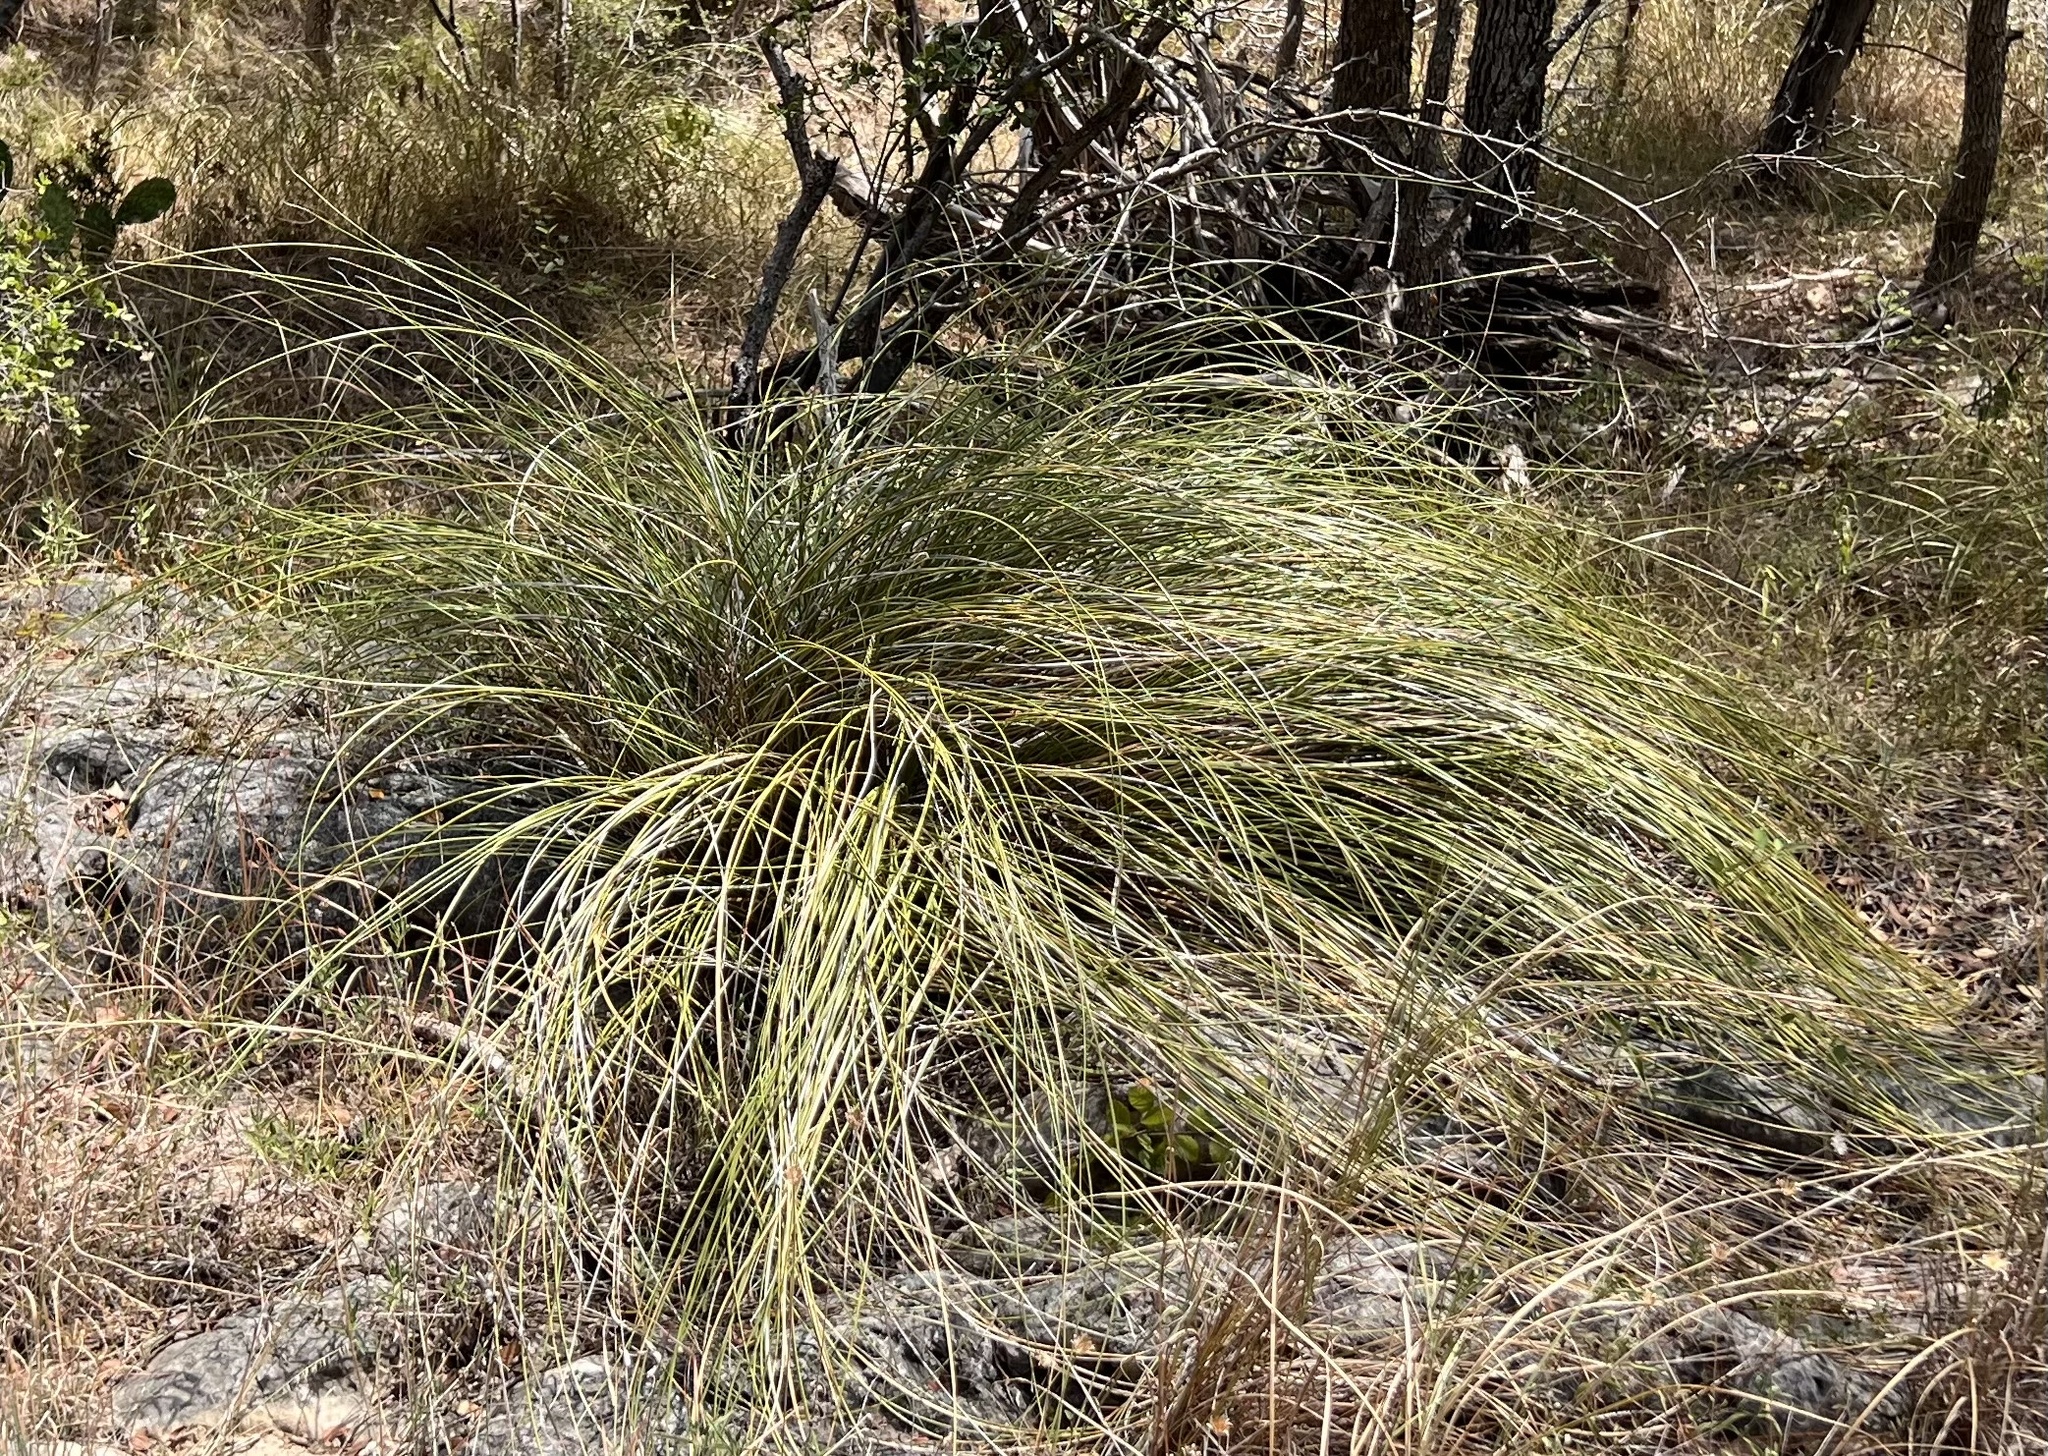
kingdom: Plantae
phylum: Tracheophyta
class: Liliopsida
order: Asparagales
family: Asparagaceae
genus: Nolina
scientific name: Nolina texana
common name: Texas sacahuiste
